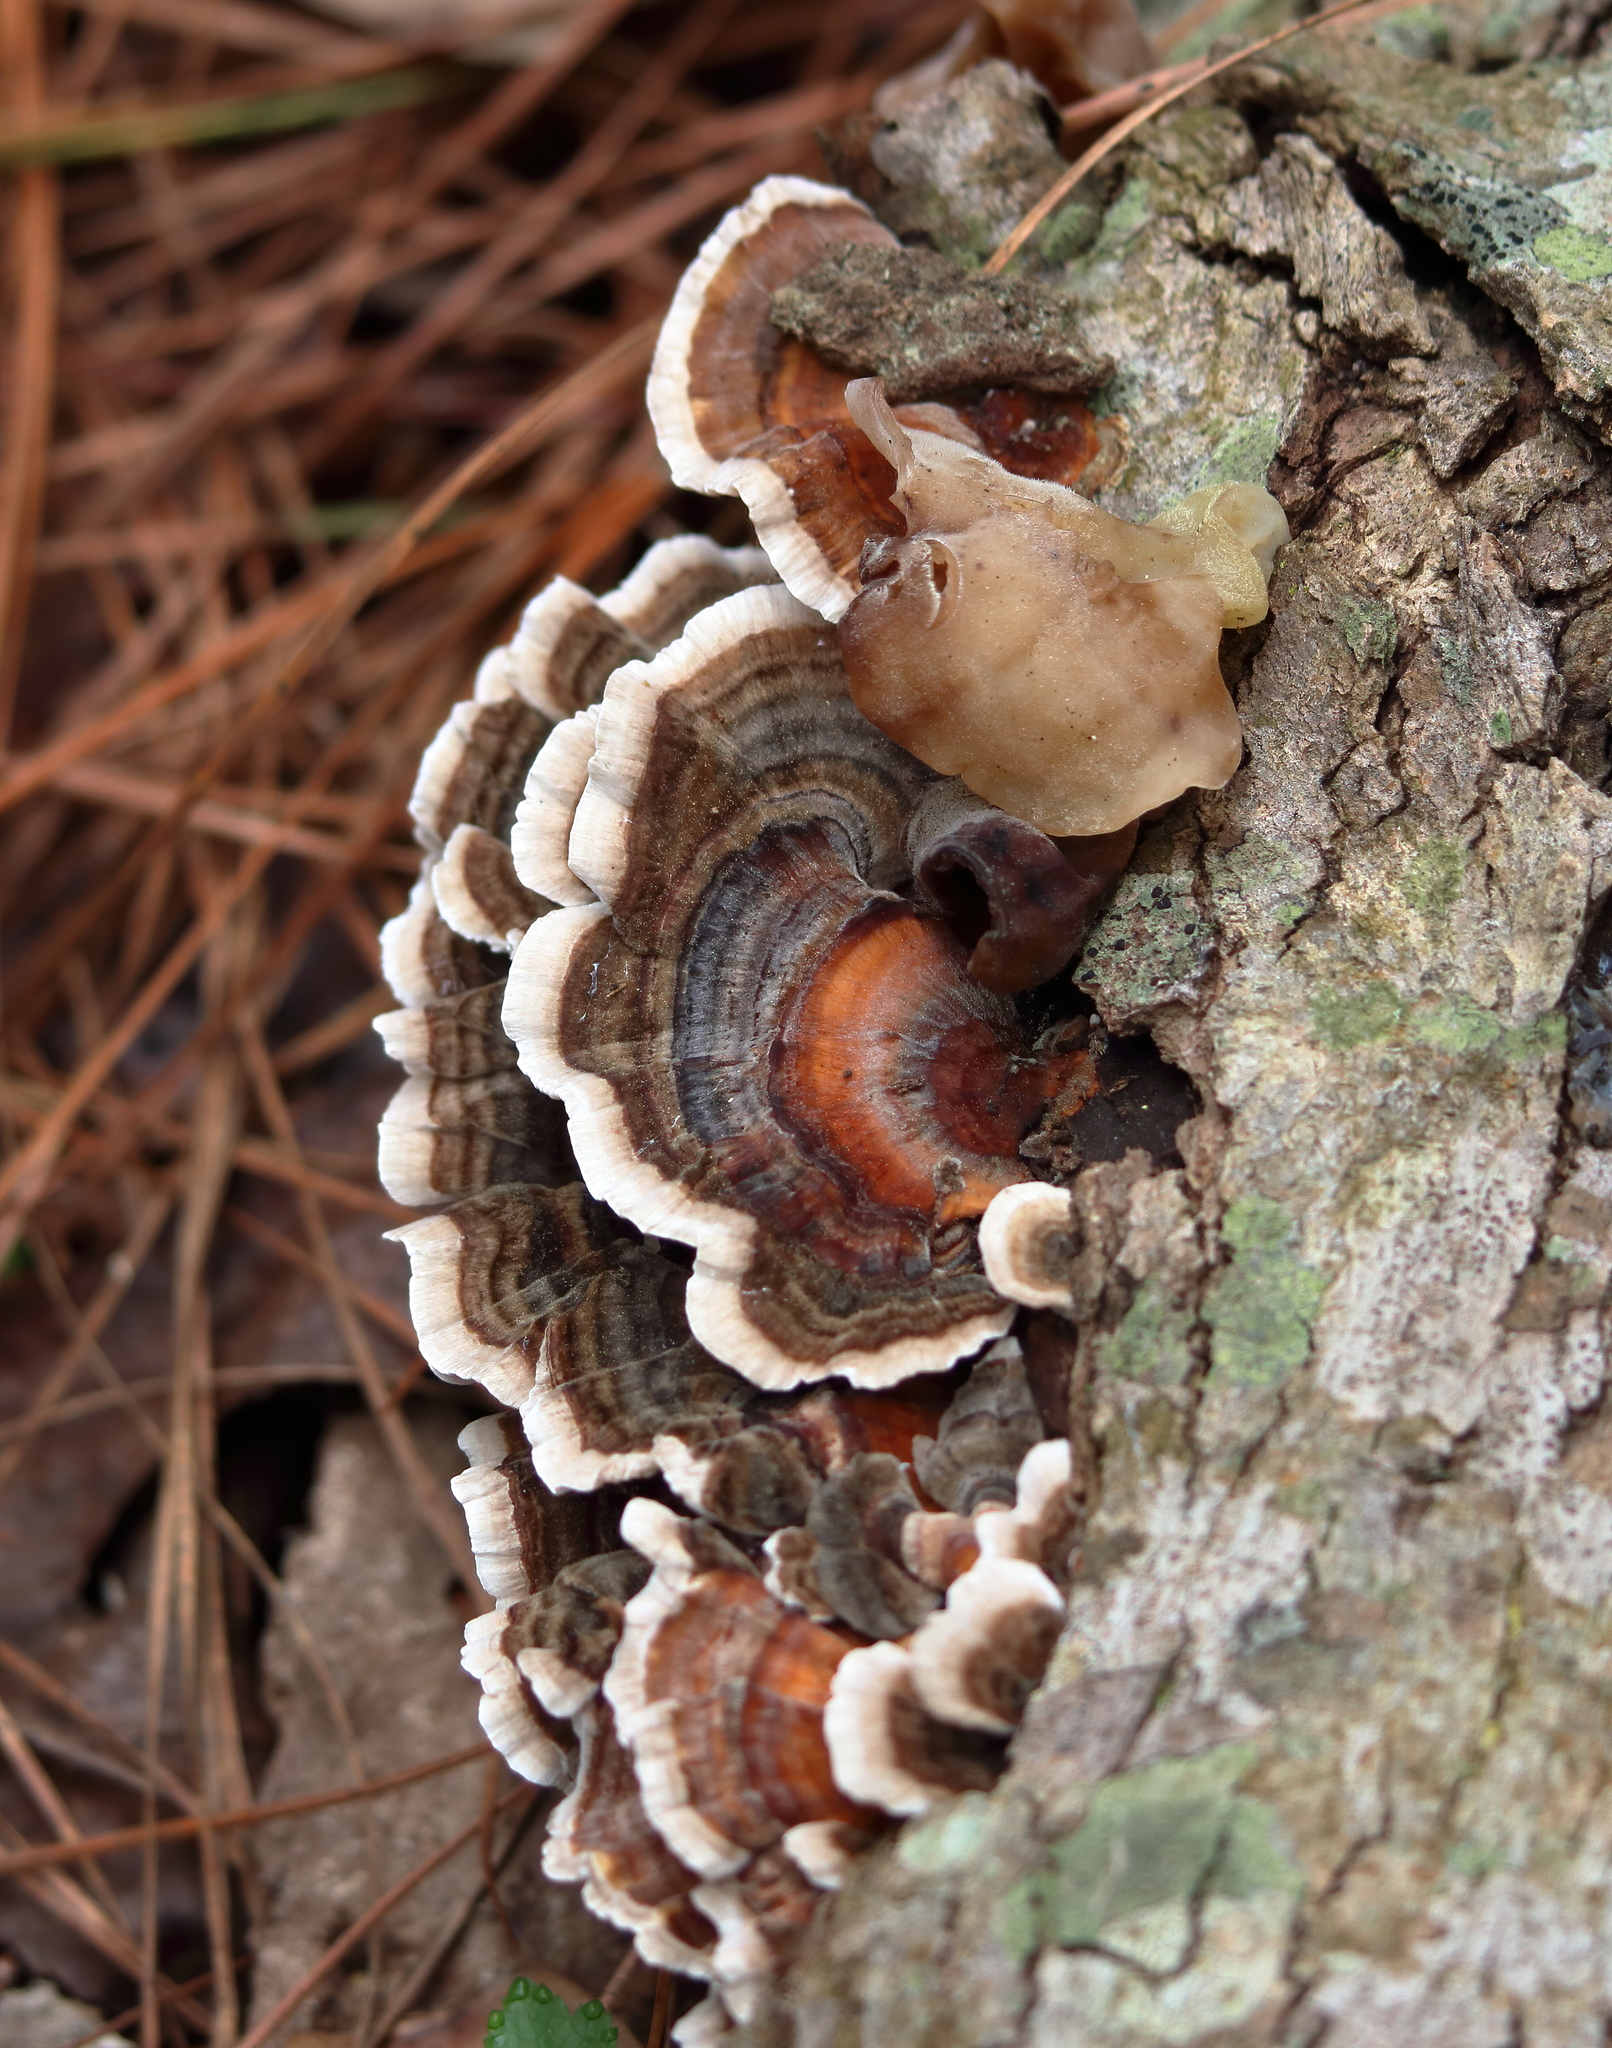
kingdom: Fungi
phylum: Basidiomycota
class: Agaricomycetes
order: Polyporales
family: Polyporaceae
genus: Trametes
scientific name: Trametes versicolor
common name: Turkeytail
